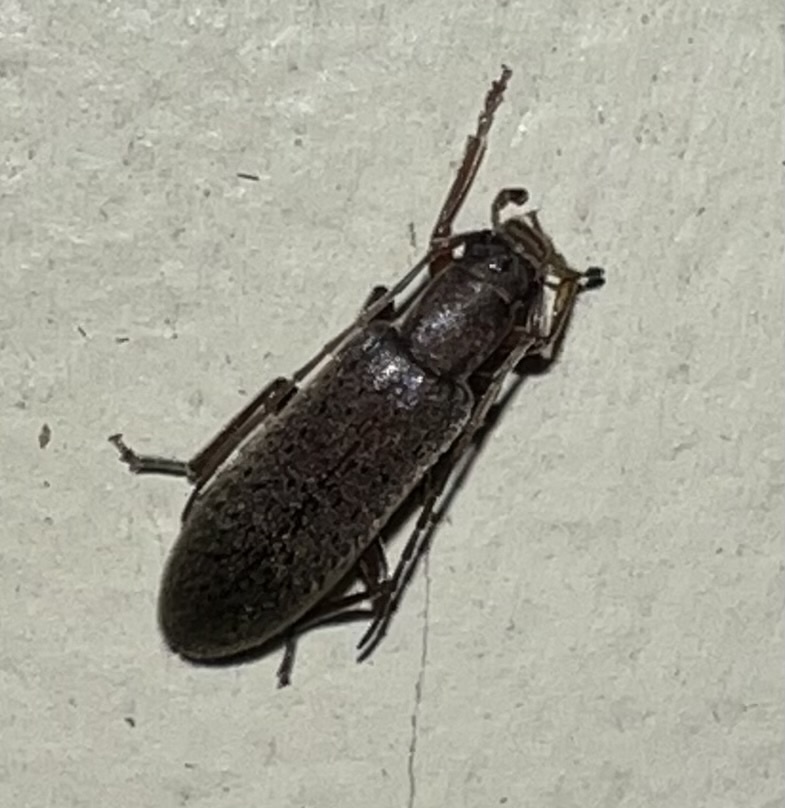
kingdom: Animalia
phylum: Arthropoda
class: Insecta
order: Coleoptera
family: Oedemeridae
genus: Sparedrus
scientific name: Sparedrus aspersus
